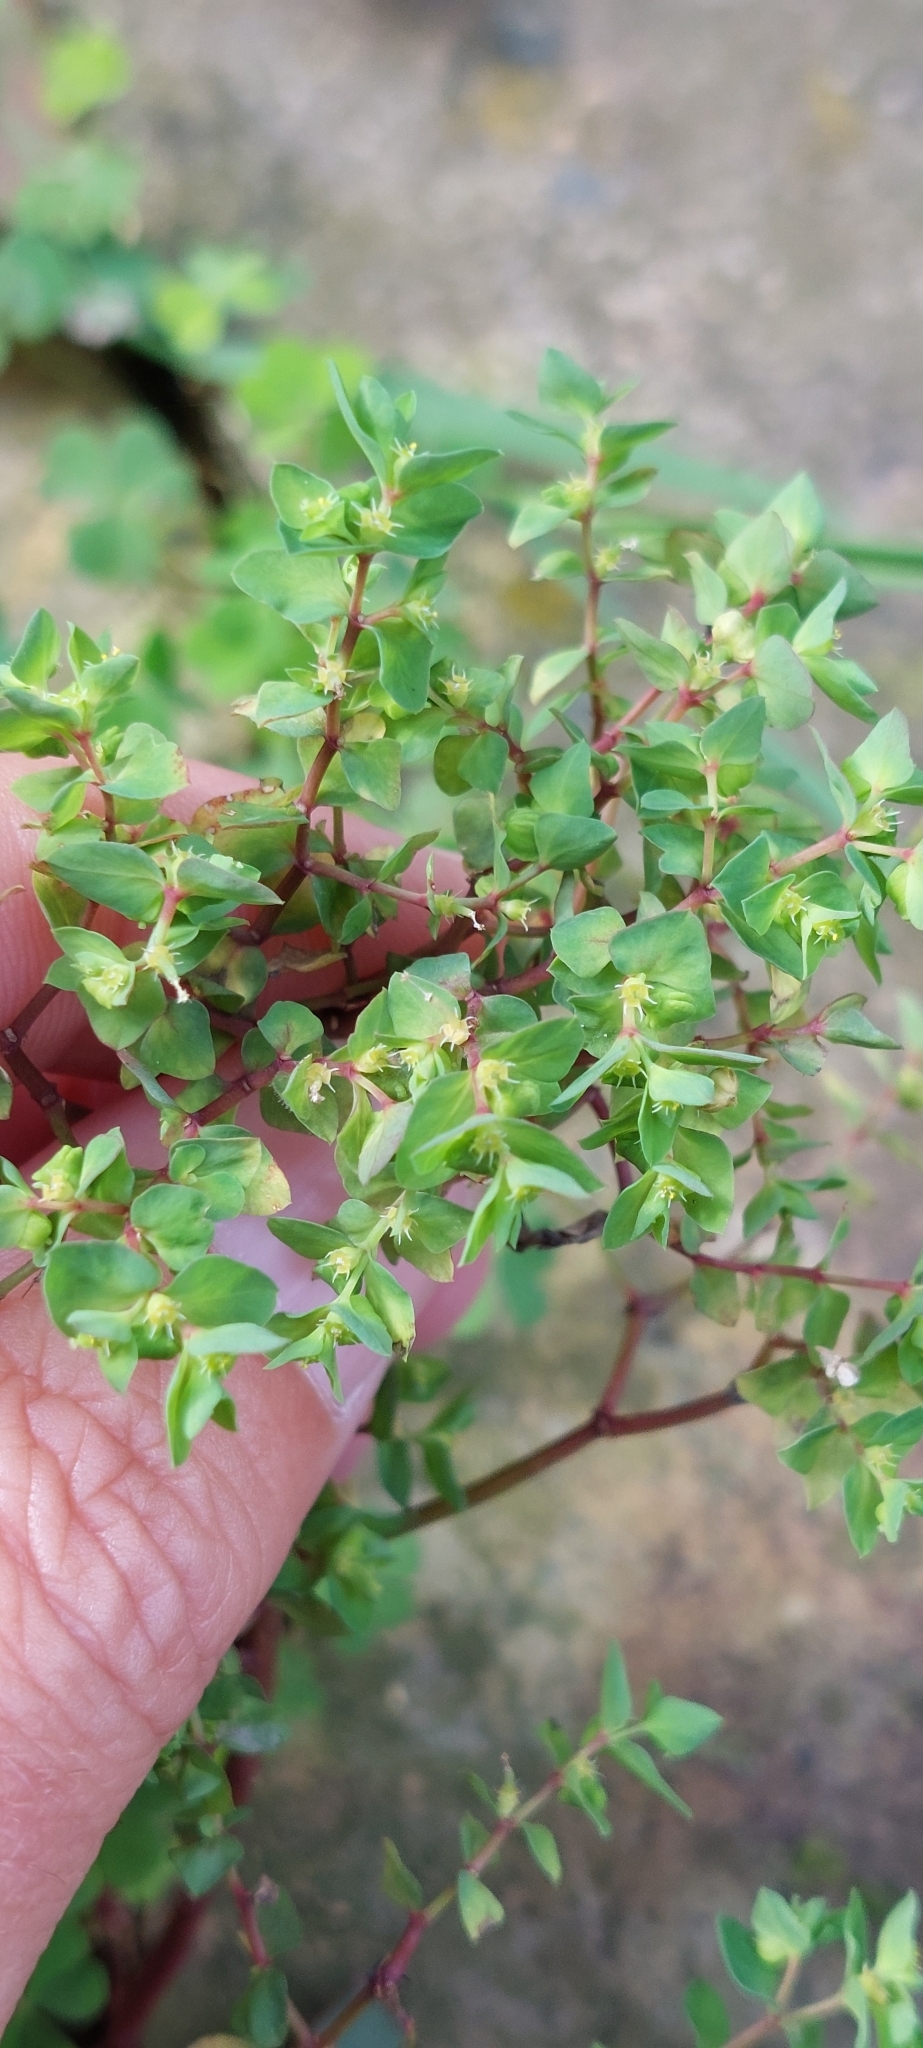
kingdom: Plantae
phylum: Tracheophyta
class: Magnoliopsida
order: Malpighiales
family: Euphorbiaceae
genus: Euphorbia
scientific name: Euphorbia peplus
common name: Petty spurge
